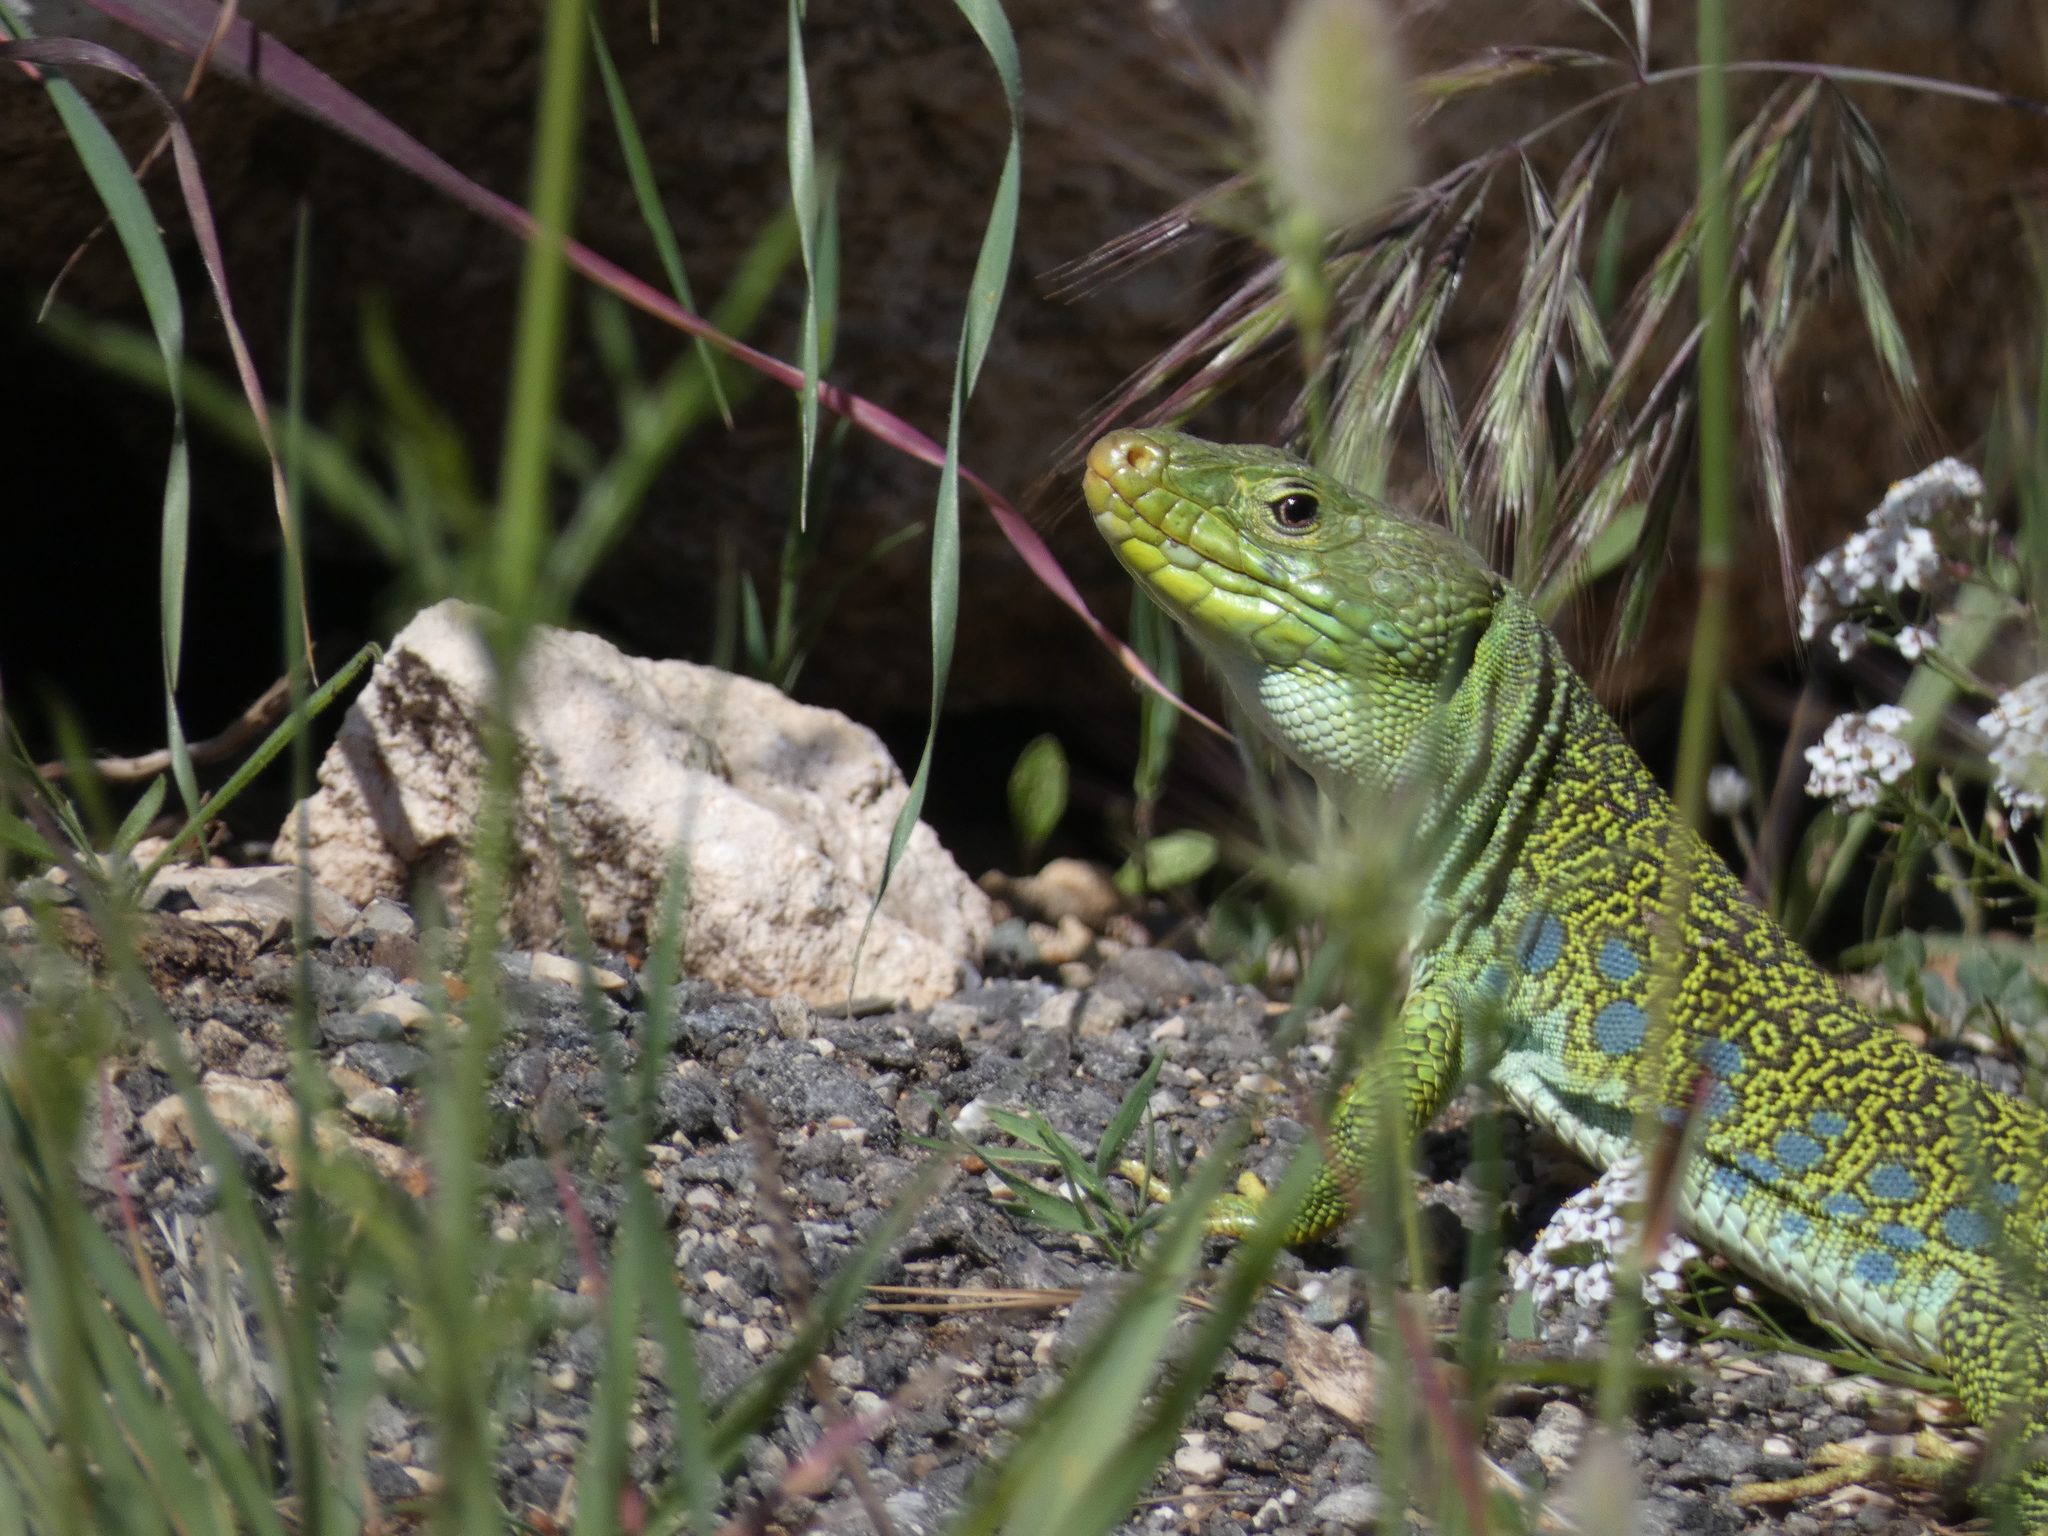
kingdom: Animalia
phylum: Chordata
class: Squamata
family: Lacertidae
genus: Timon
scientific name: Timon lepidus
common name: Ocellated lizard
